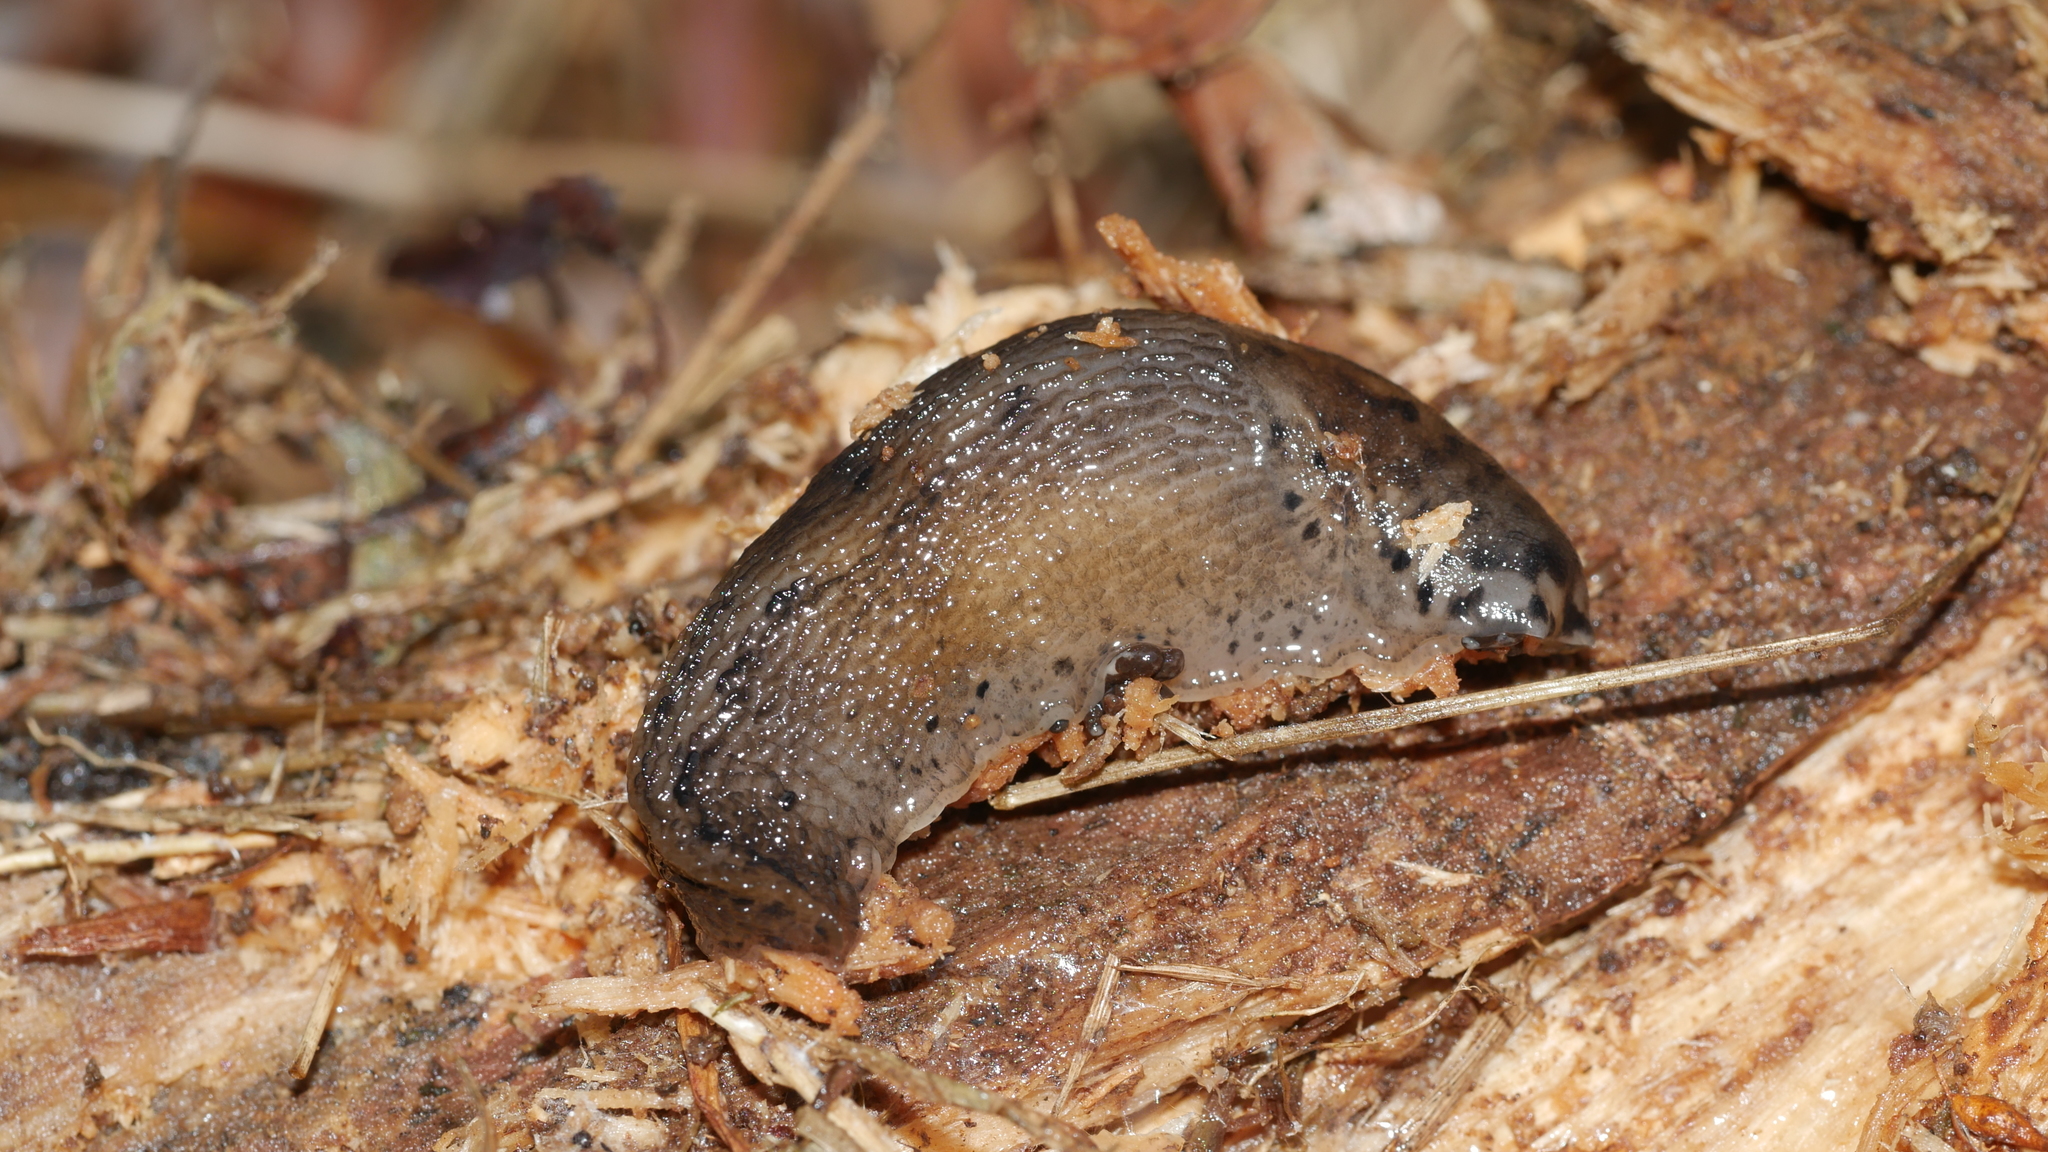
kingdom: Animalia
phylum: Mollusca
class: Gastropoda
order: Stylommatophora
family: Limacidae
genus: Limax
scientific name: Limax maximus
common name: Great grey slug
